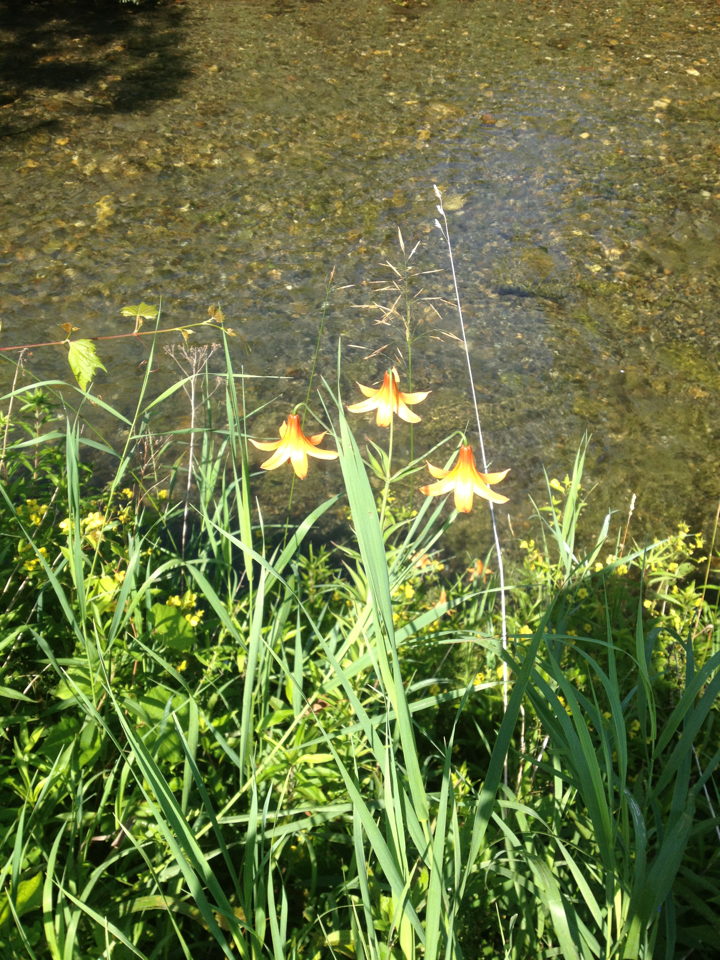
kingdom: Plantae
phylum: Tracheophyta
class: Liliopsida
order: Liliales
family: Liliaceae
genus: Lilium
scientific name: Lilium canadense
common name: Canada lily
